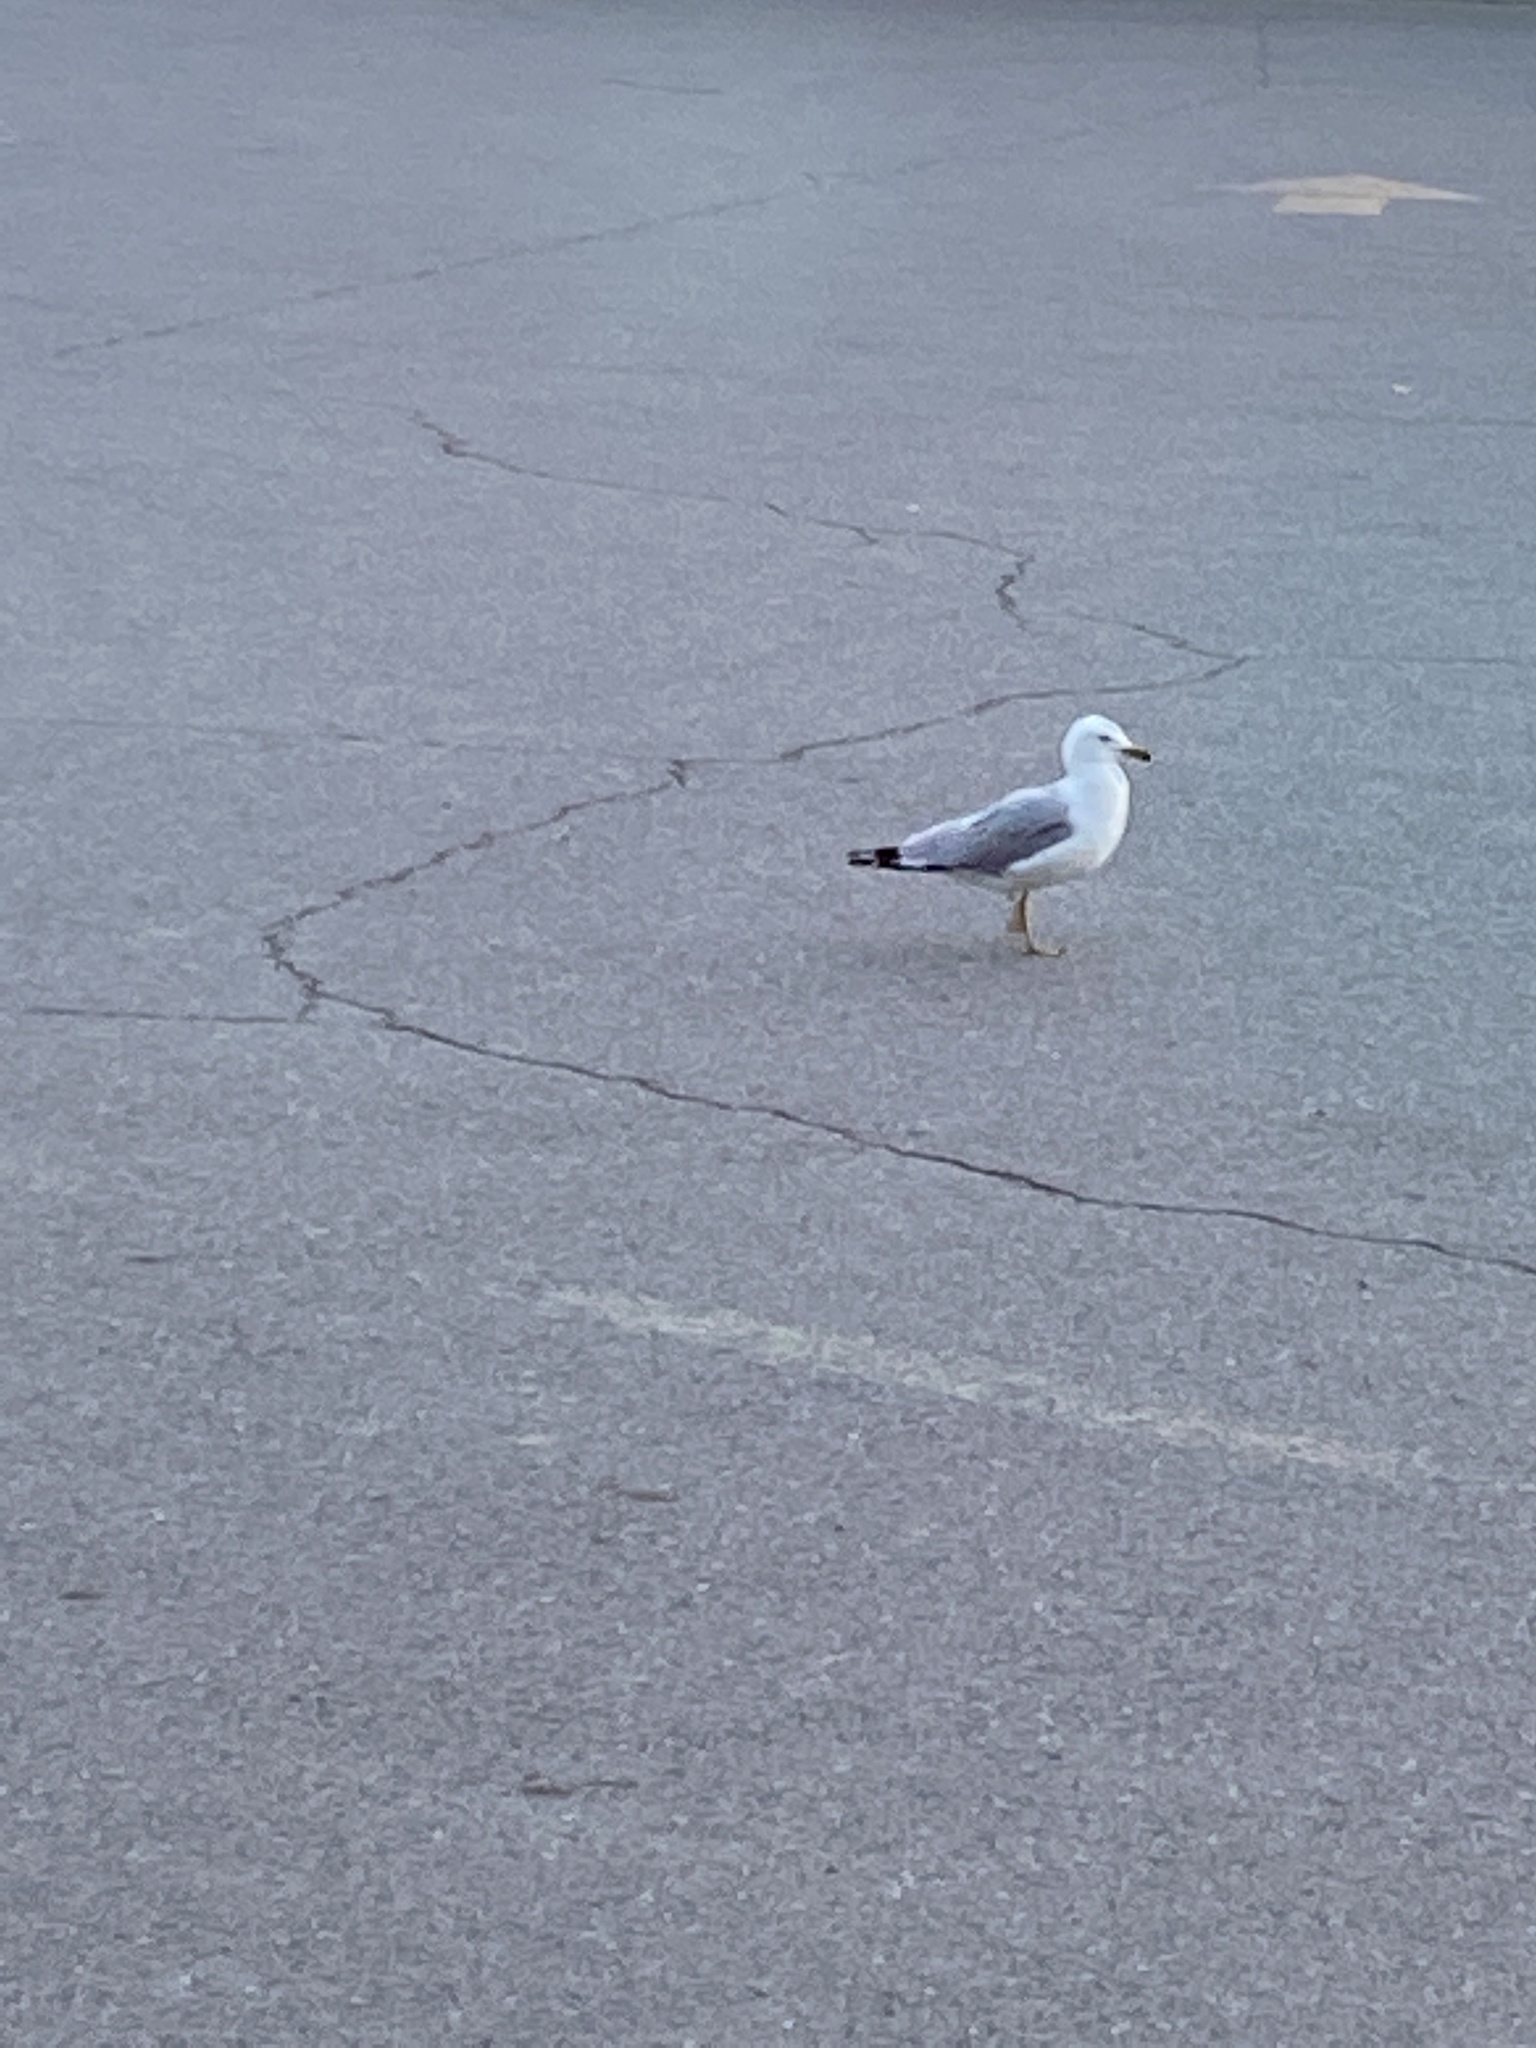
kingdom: Animalia
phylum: Chordata
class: Aves
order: Charadriiformes
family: Laridae
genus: Larus
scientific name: Larus delawarensis
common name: Ring-billed gull
